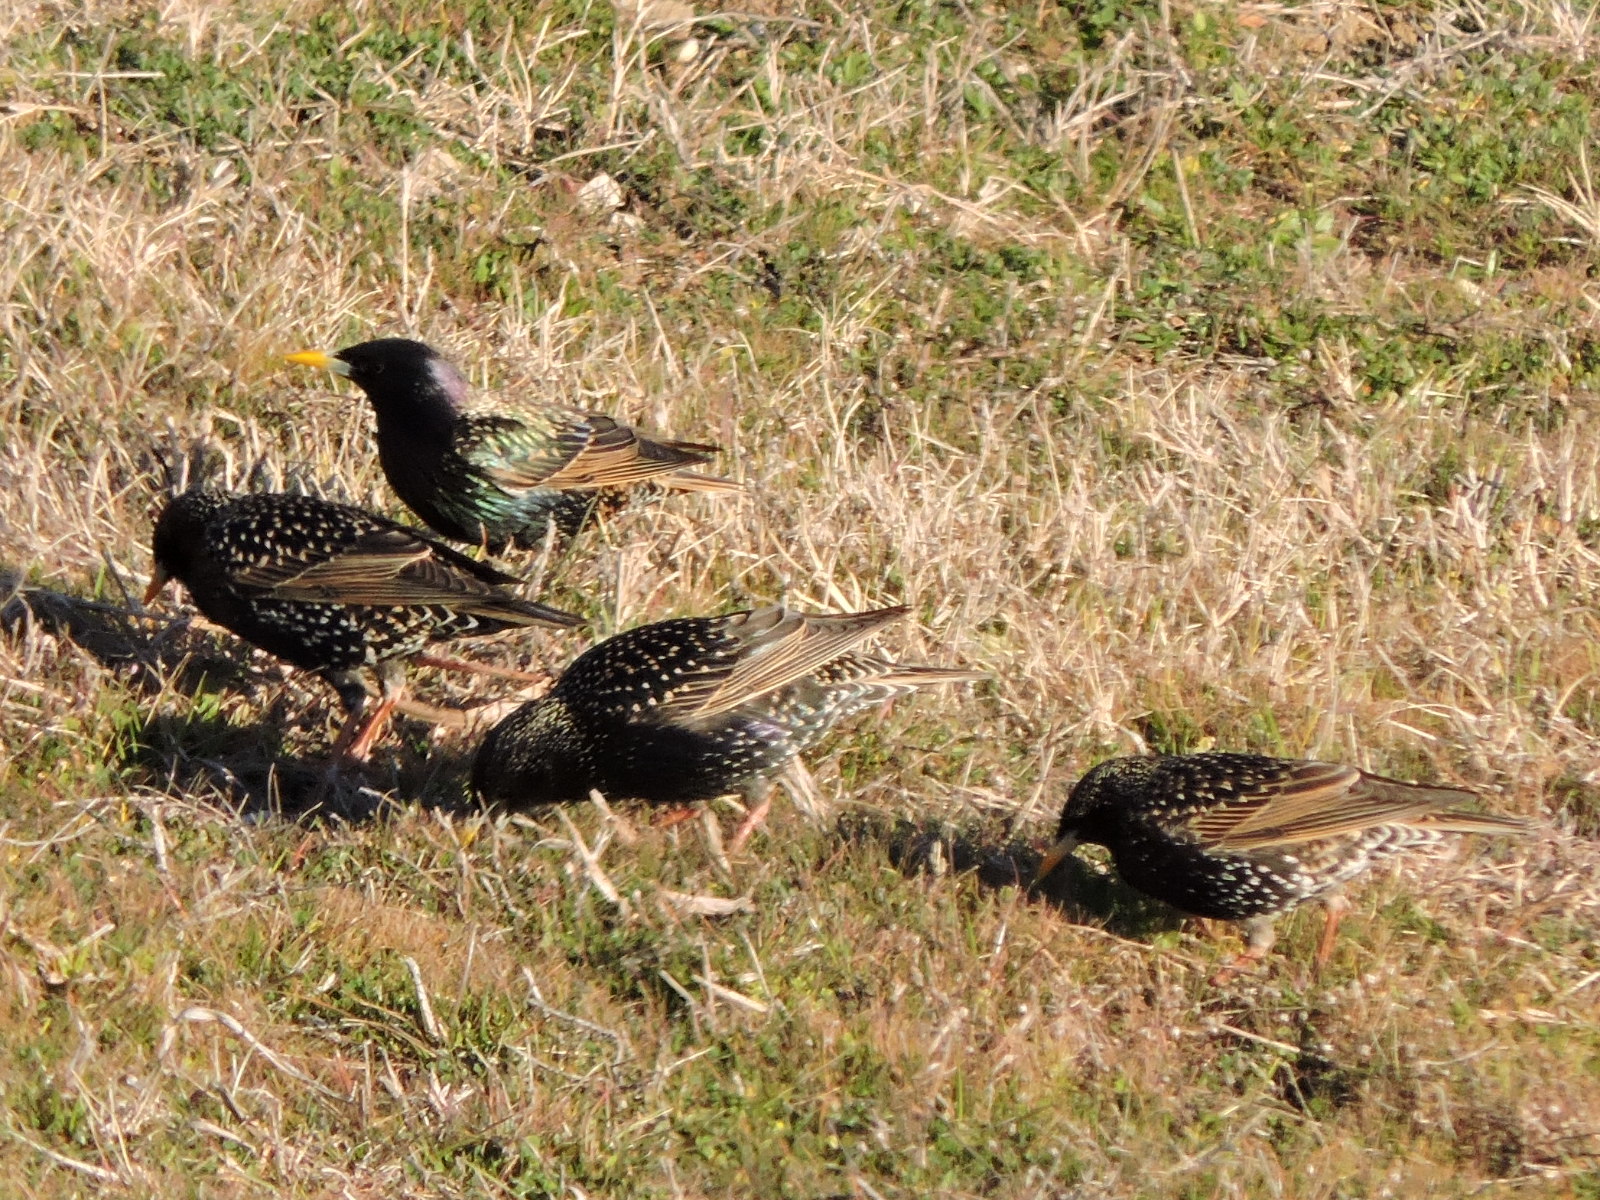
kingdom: Animalia
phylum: Chordata
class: Aves
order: Passeriformes
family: Sturnidae
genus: Sturnus
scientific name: Sturnus vulgaris
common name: Common starling
